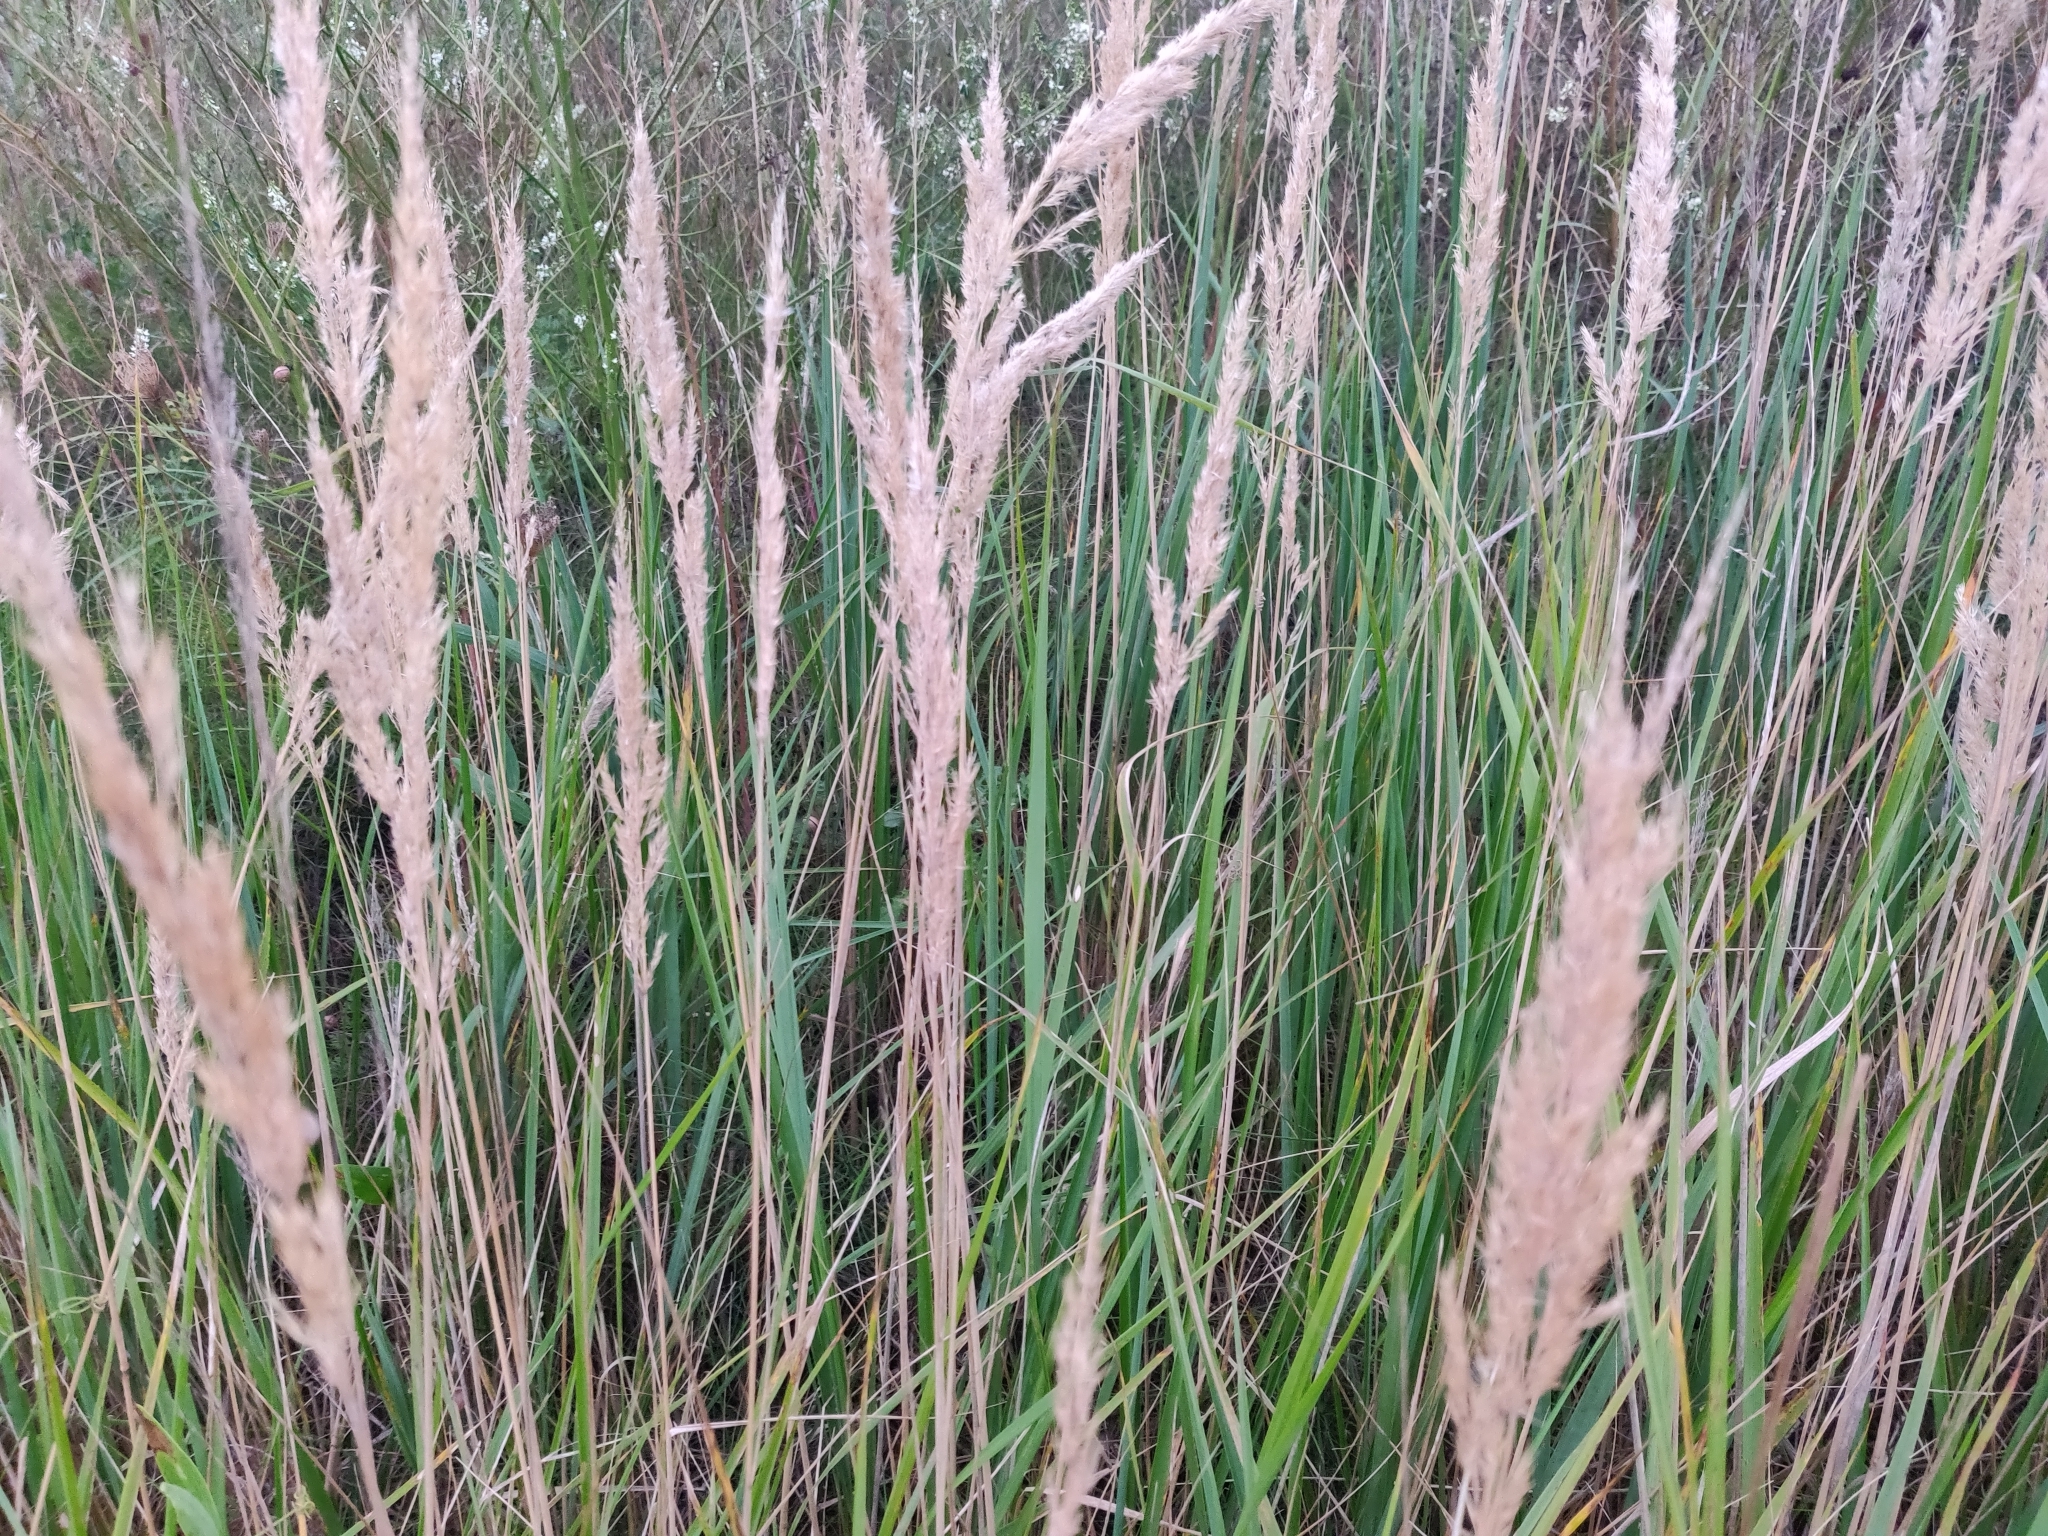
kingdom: Plantae
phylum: Tracheophyta
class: Liliopsida
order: Poales
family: Poaceae
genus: Calamagrostis
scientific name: Calamagrostis epigejos
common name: Wood small-reed
